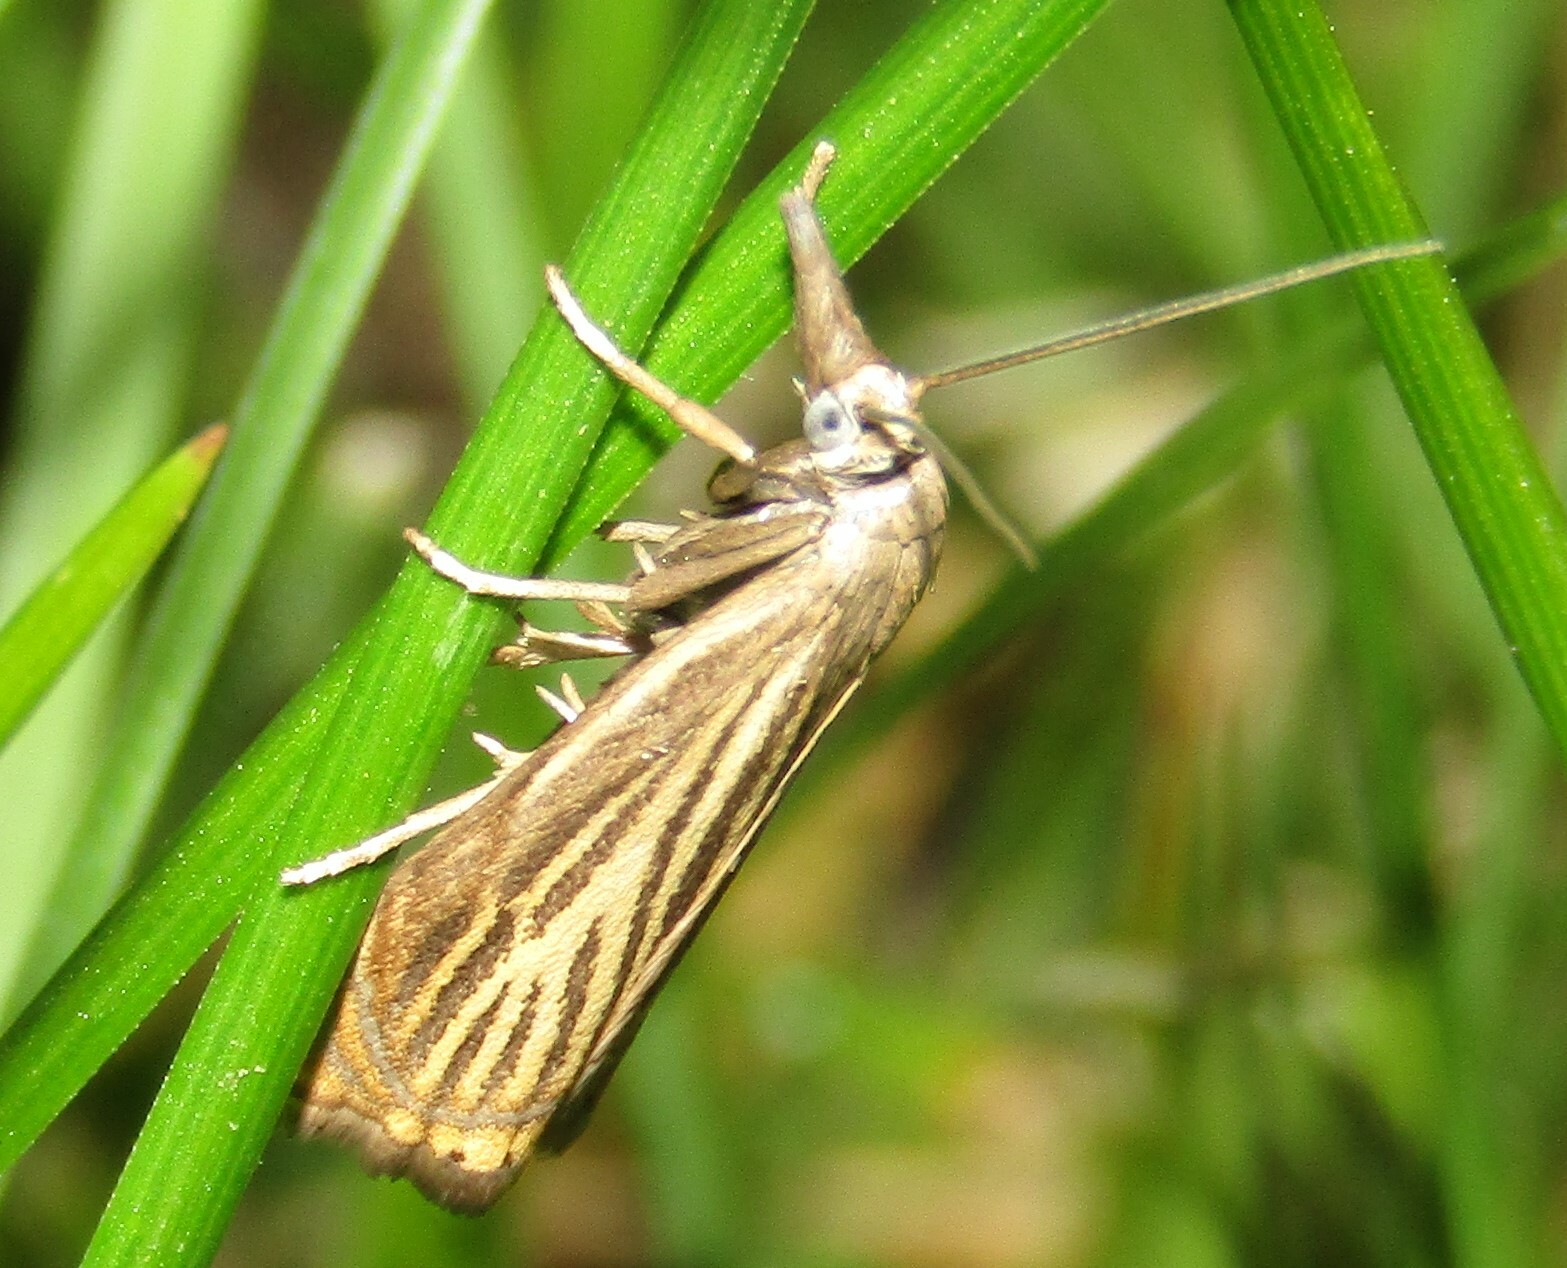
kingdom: Animalia
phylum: Arthropoda
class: Insecta
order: Lepidoptera
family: Crambidae
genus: Chrysoteuchia
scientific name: Chrysoteuchia culmella
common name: Garden grass-veneer
